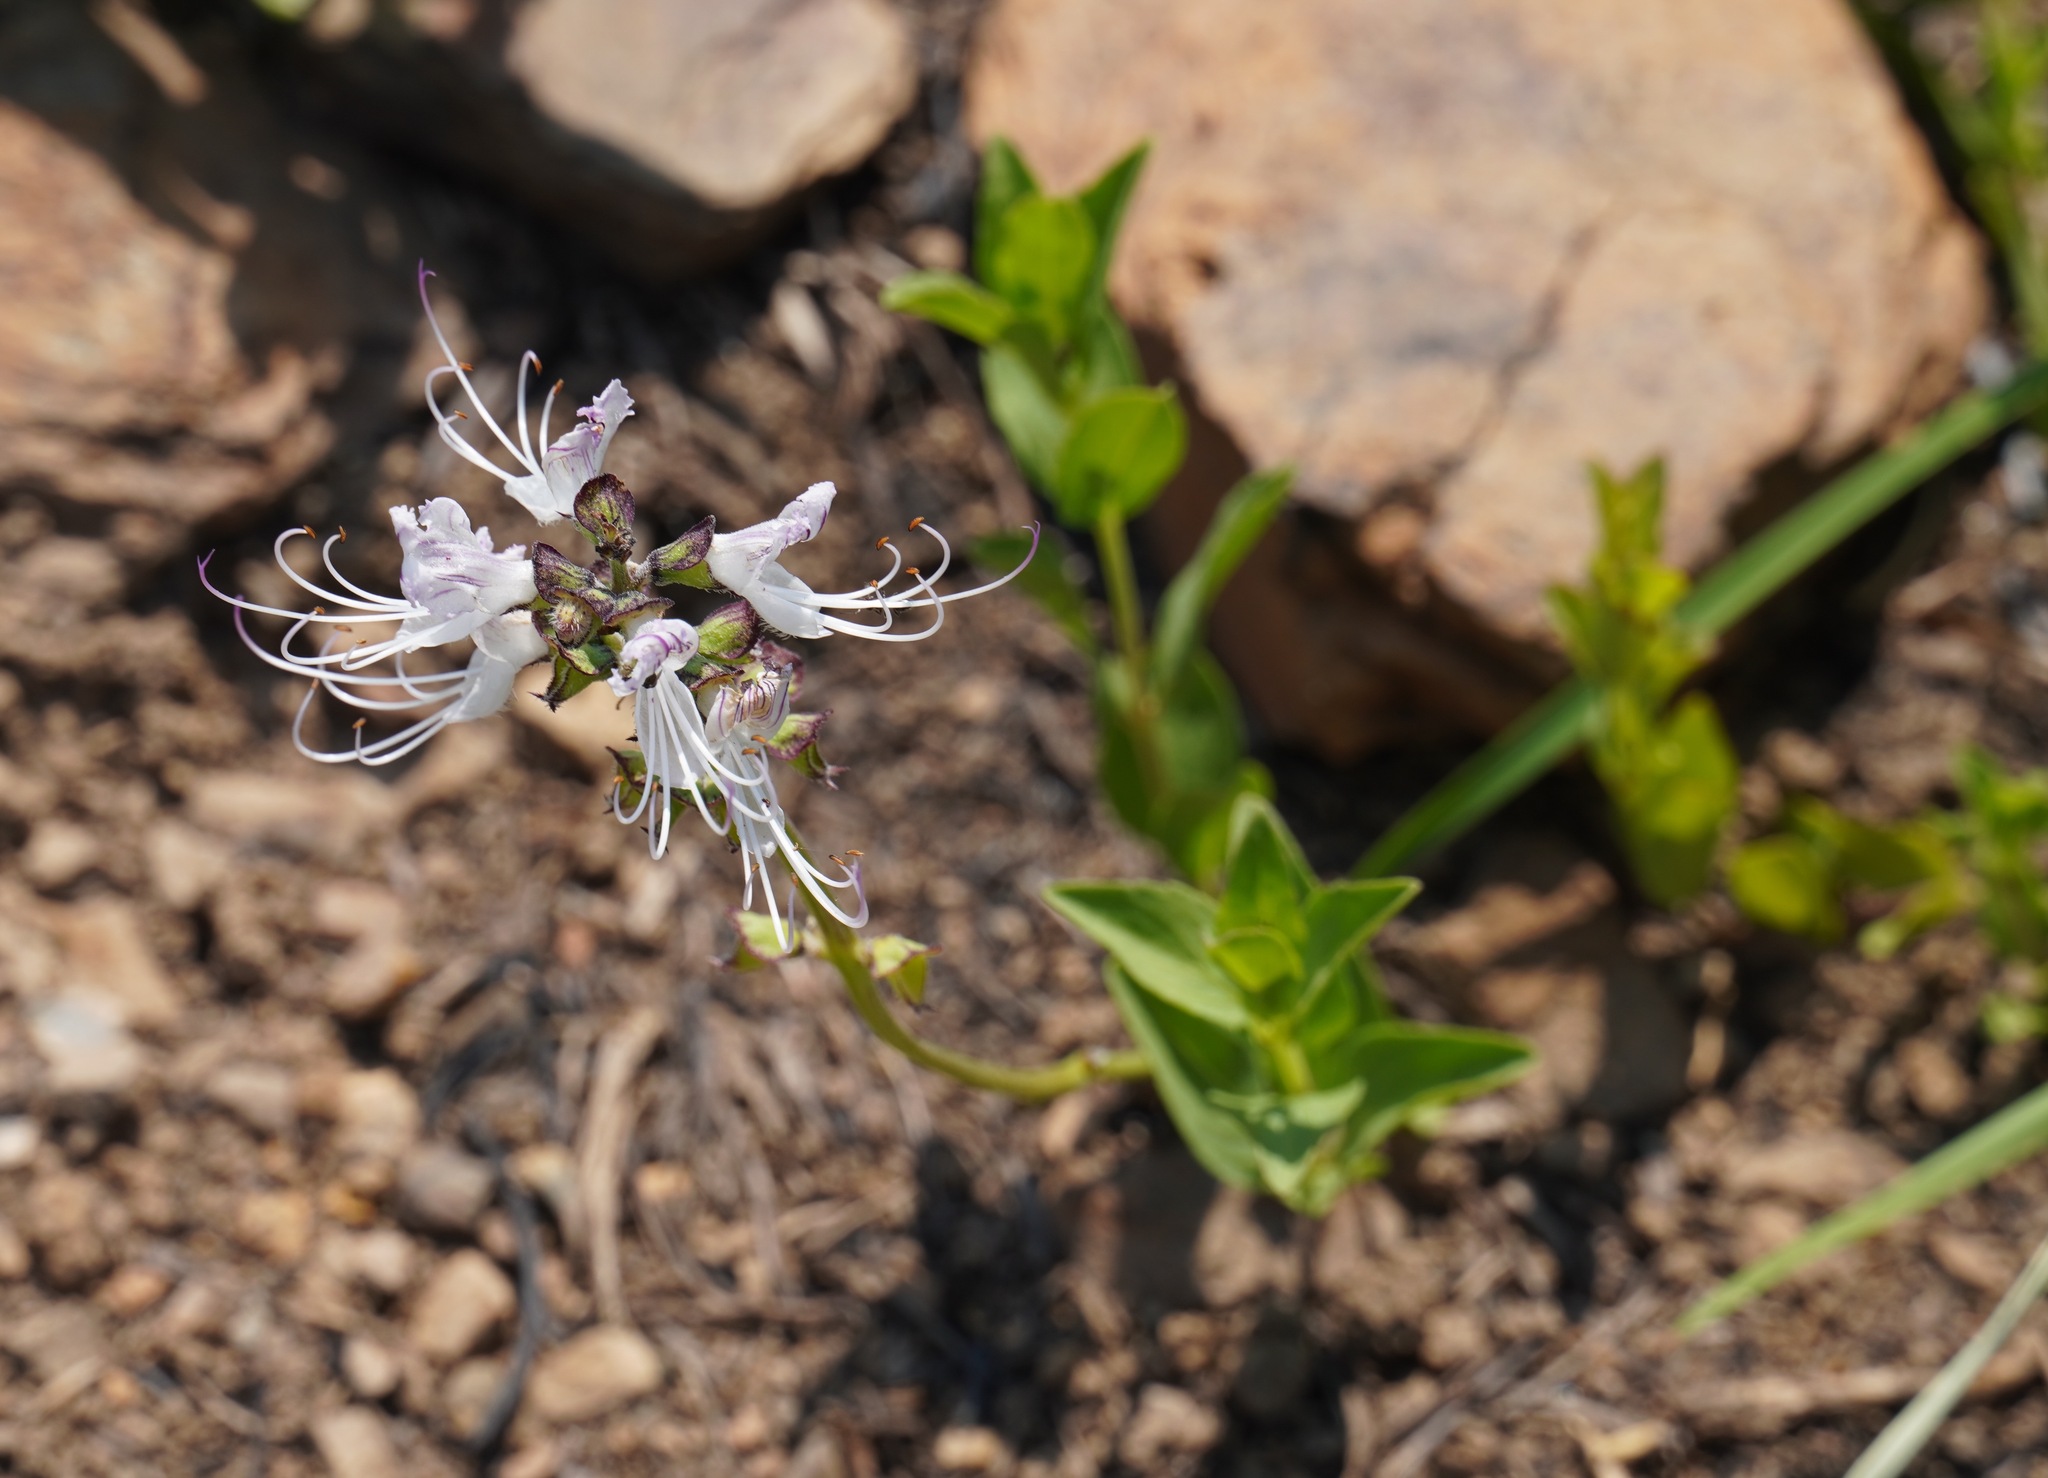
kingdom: Plantae
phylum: Tracheophyta
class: Magnoliopsida
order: Lamiales
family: Lamiaceae
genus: Ocimum
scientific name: Ocimum obovatum
